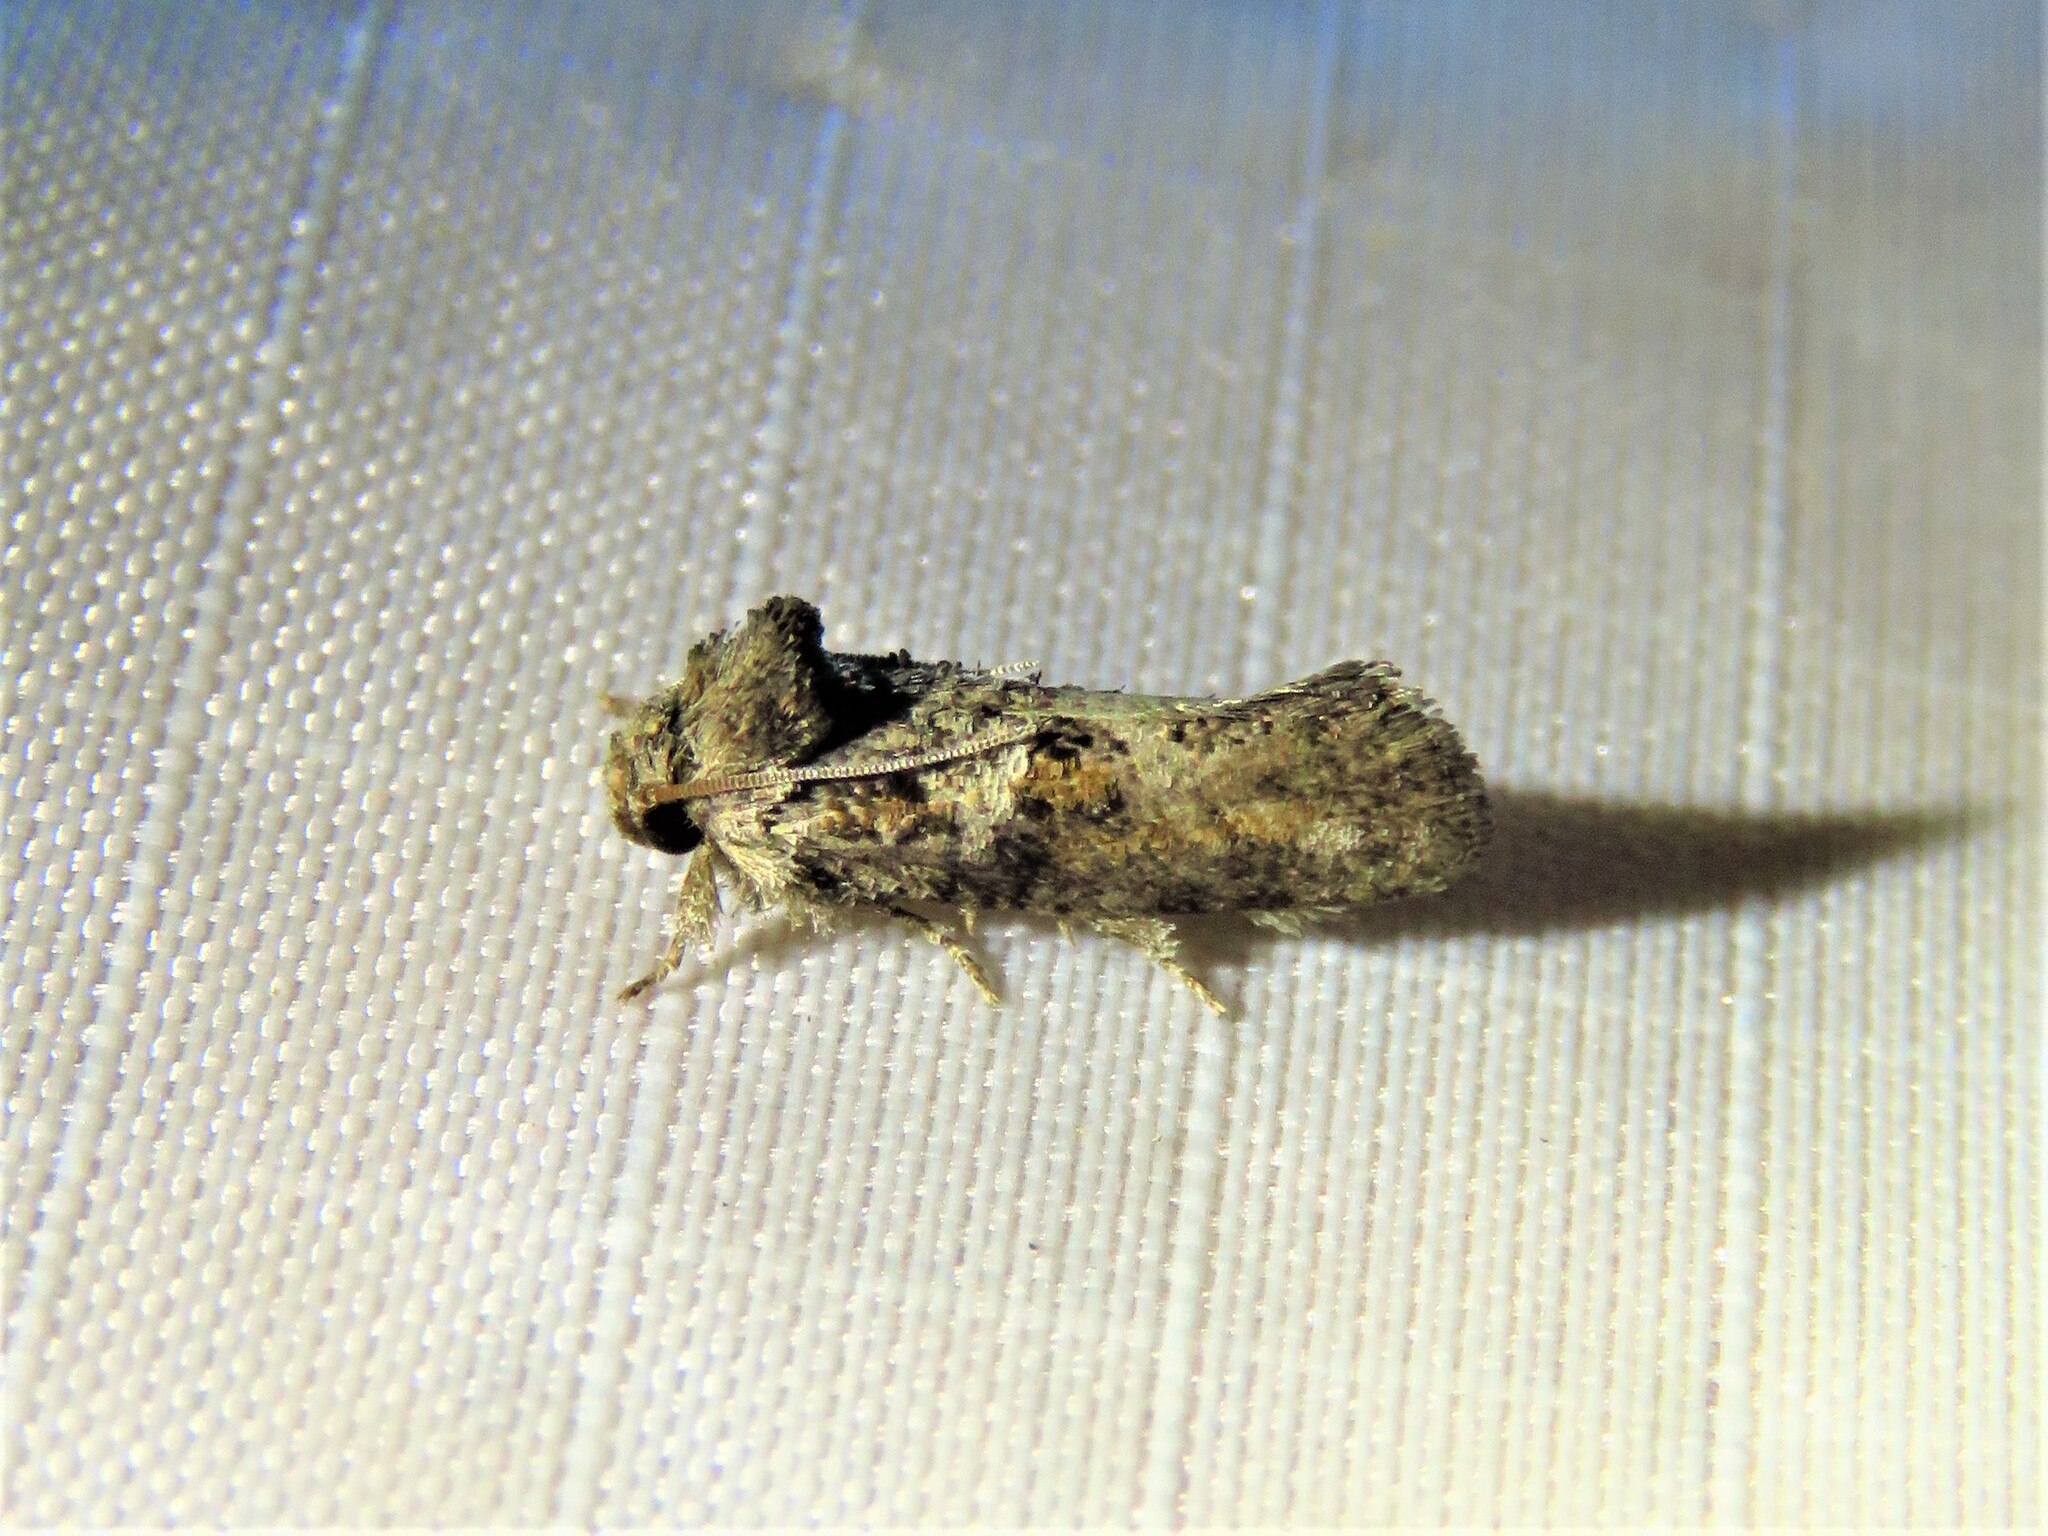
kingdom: Animalia
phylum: Arthropoda
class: Insecta
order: Lepidoptera
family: Tineidae
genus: Acrolophus
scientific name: Acrolophus piger
